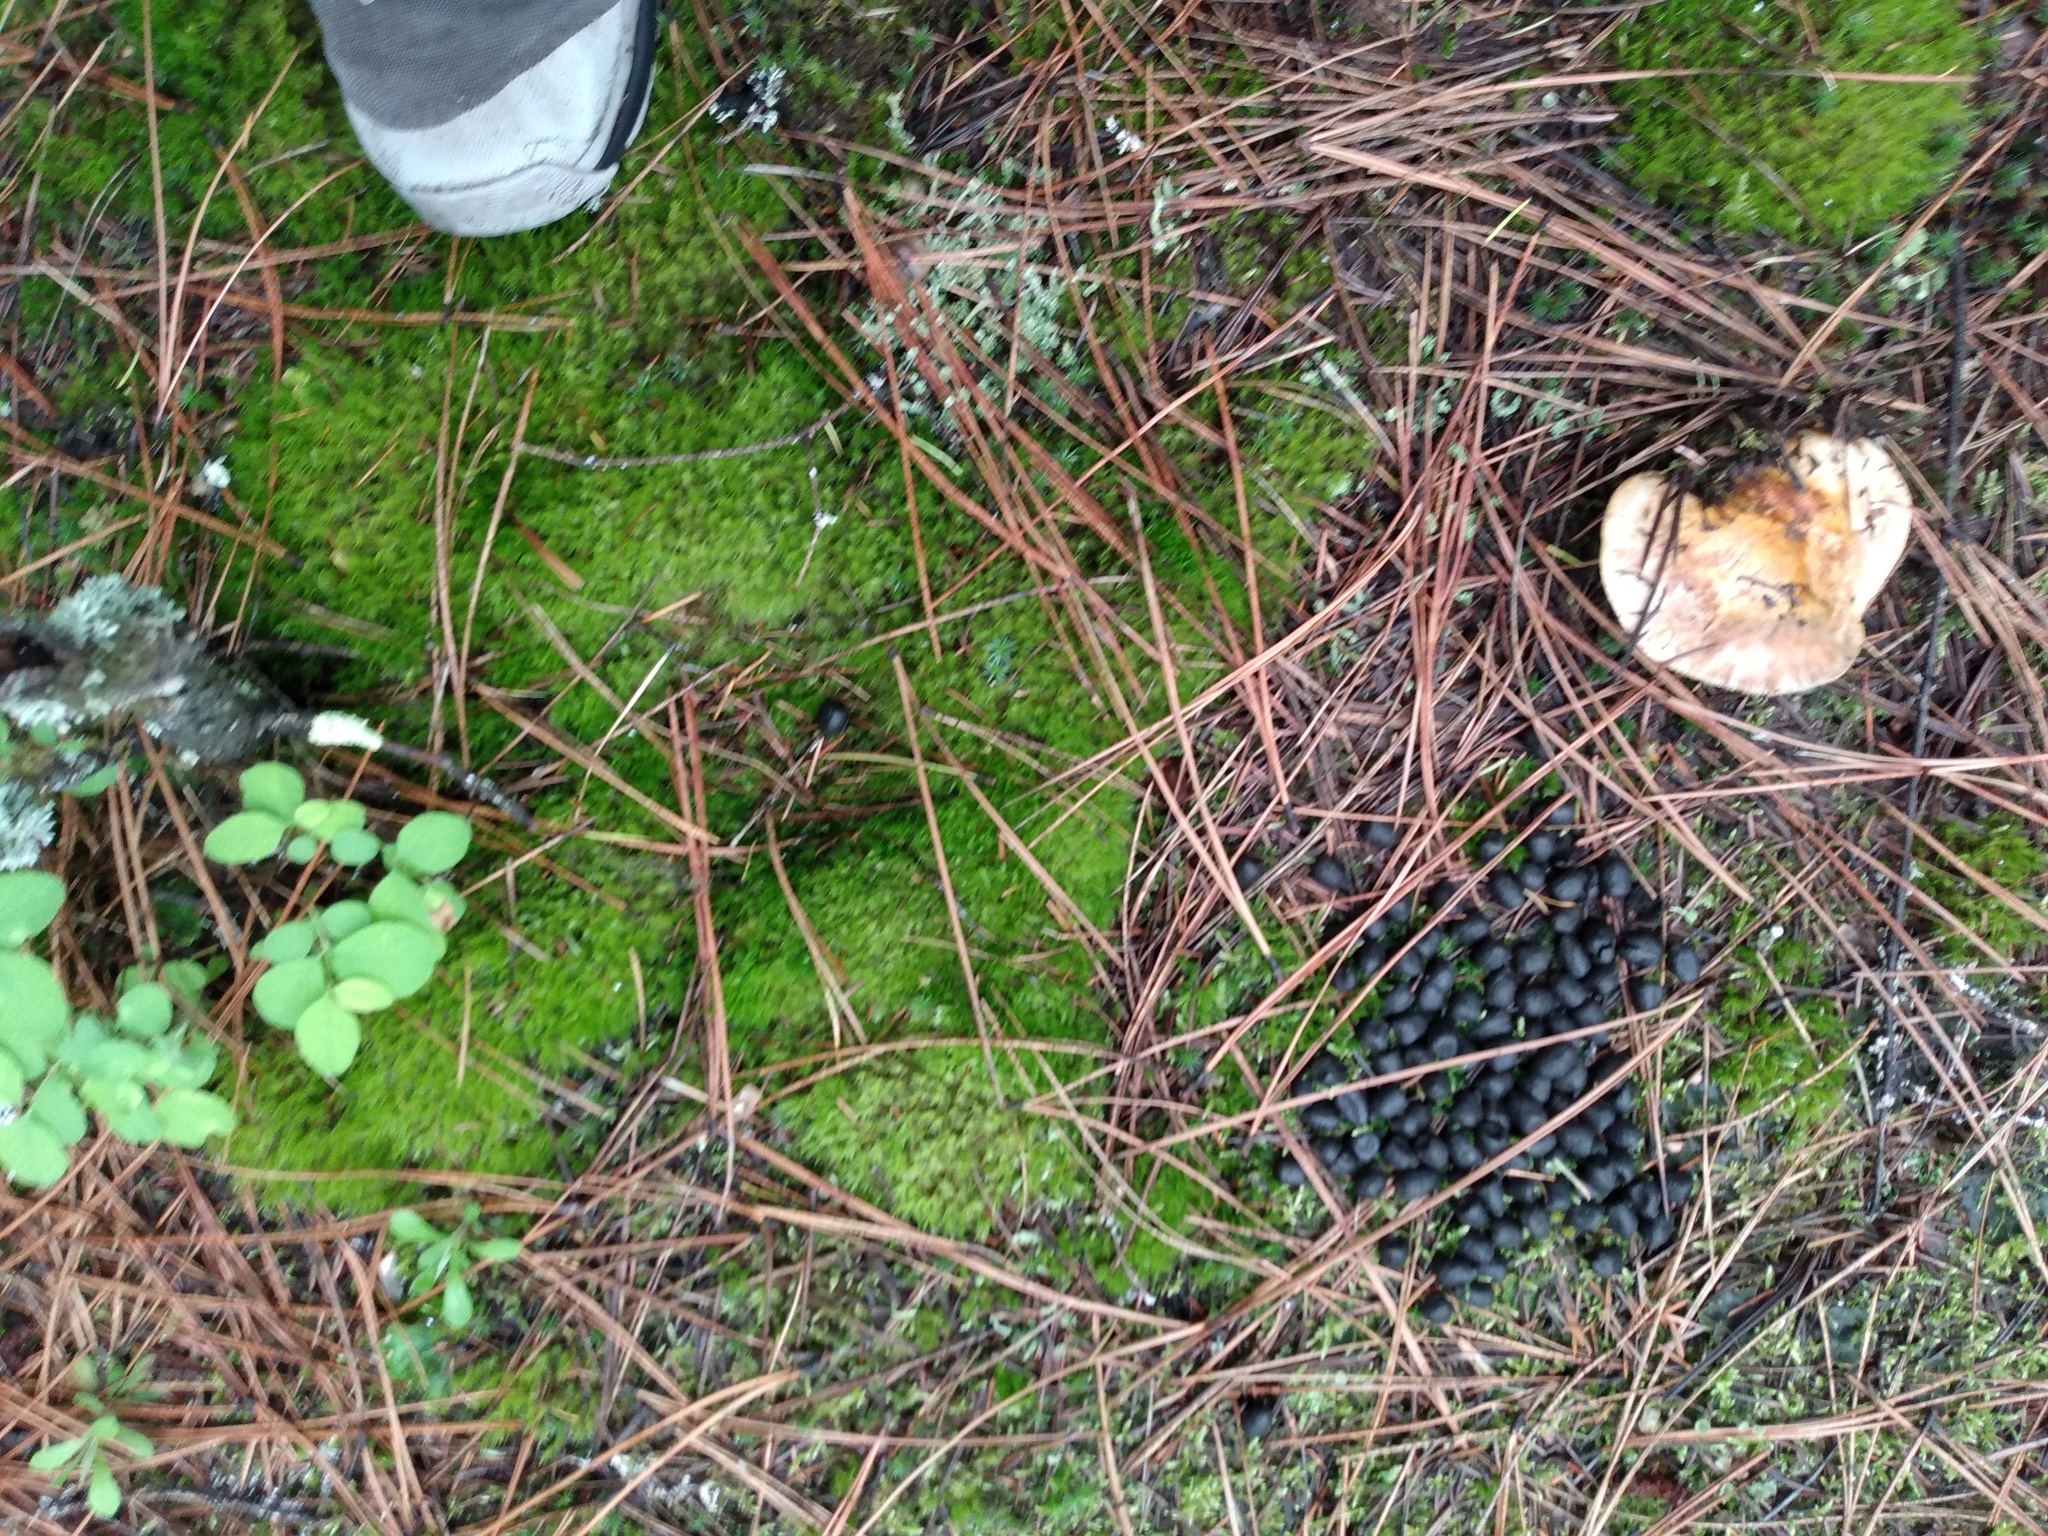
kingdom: Animalia
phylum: Chordata
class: Mammalia
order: Artiodactyla
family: Cervidae
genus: Odocoileus
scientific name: Odocoileus virginianus
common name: White-tailed deer
